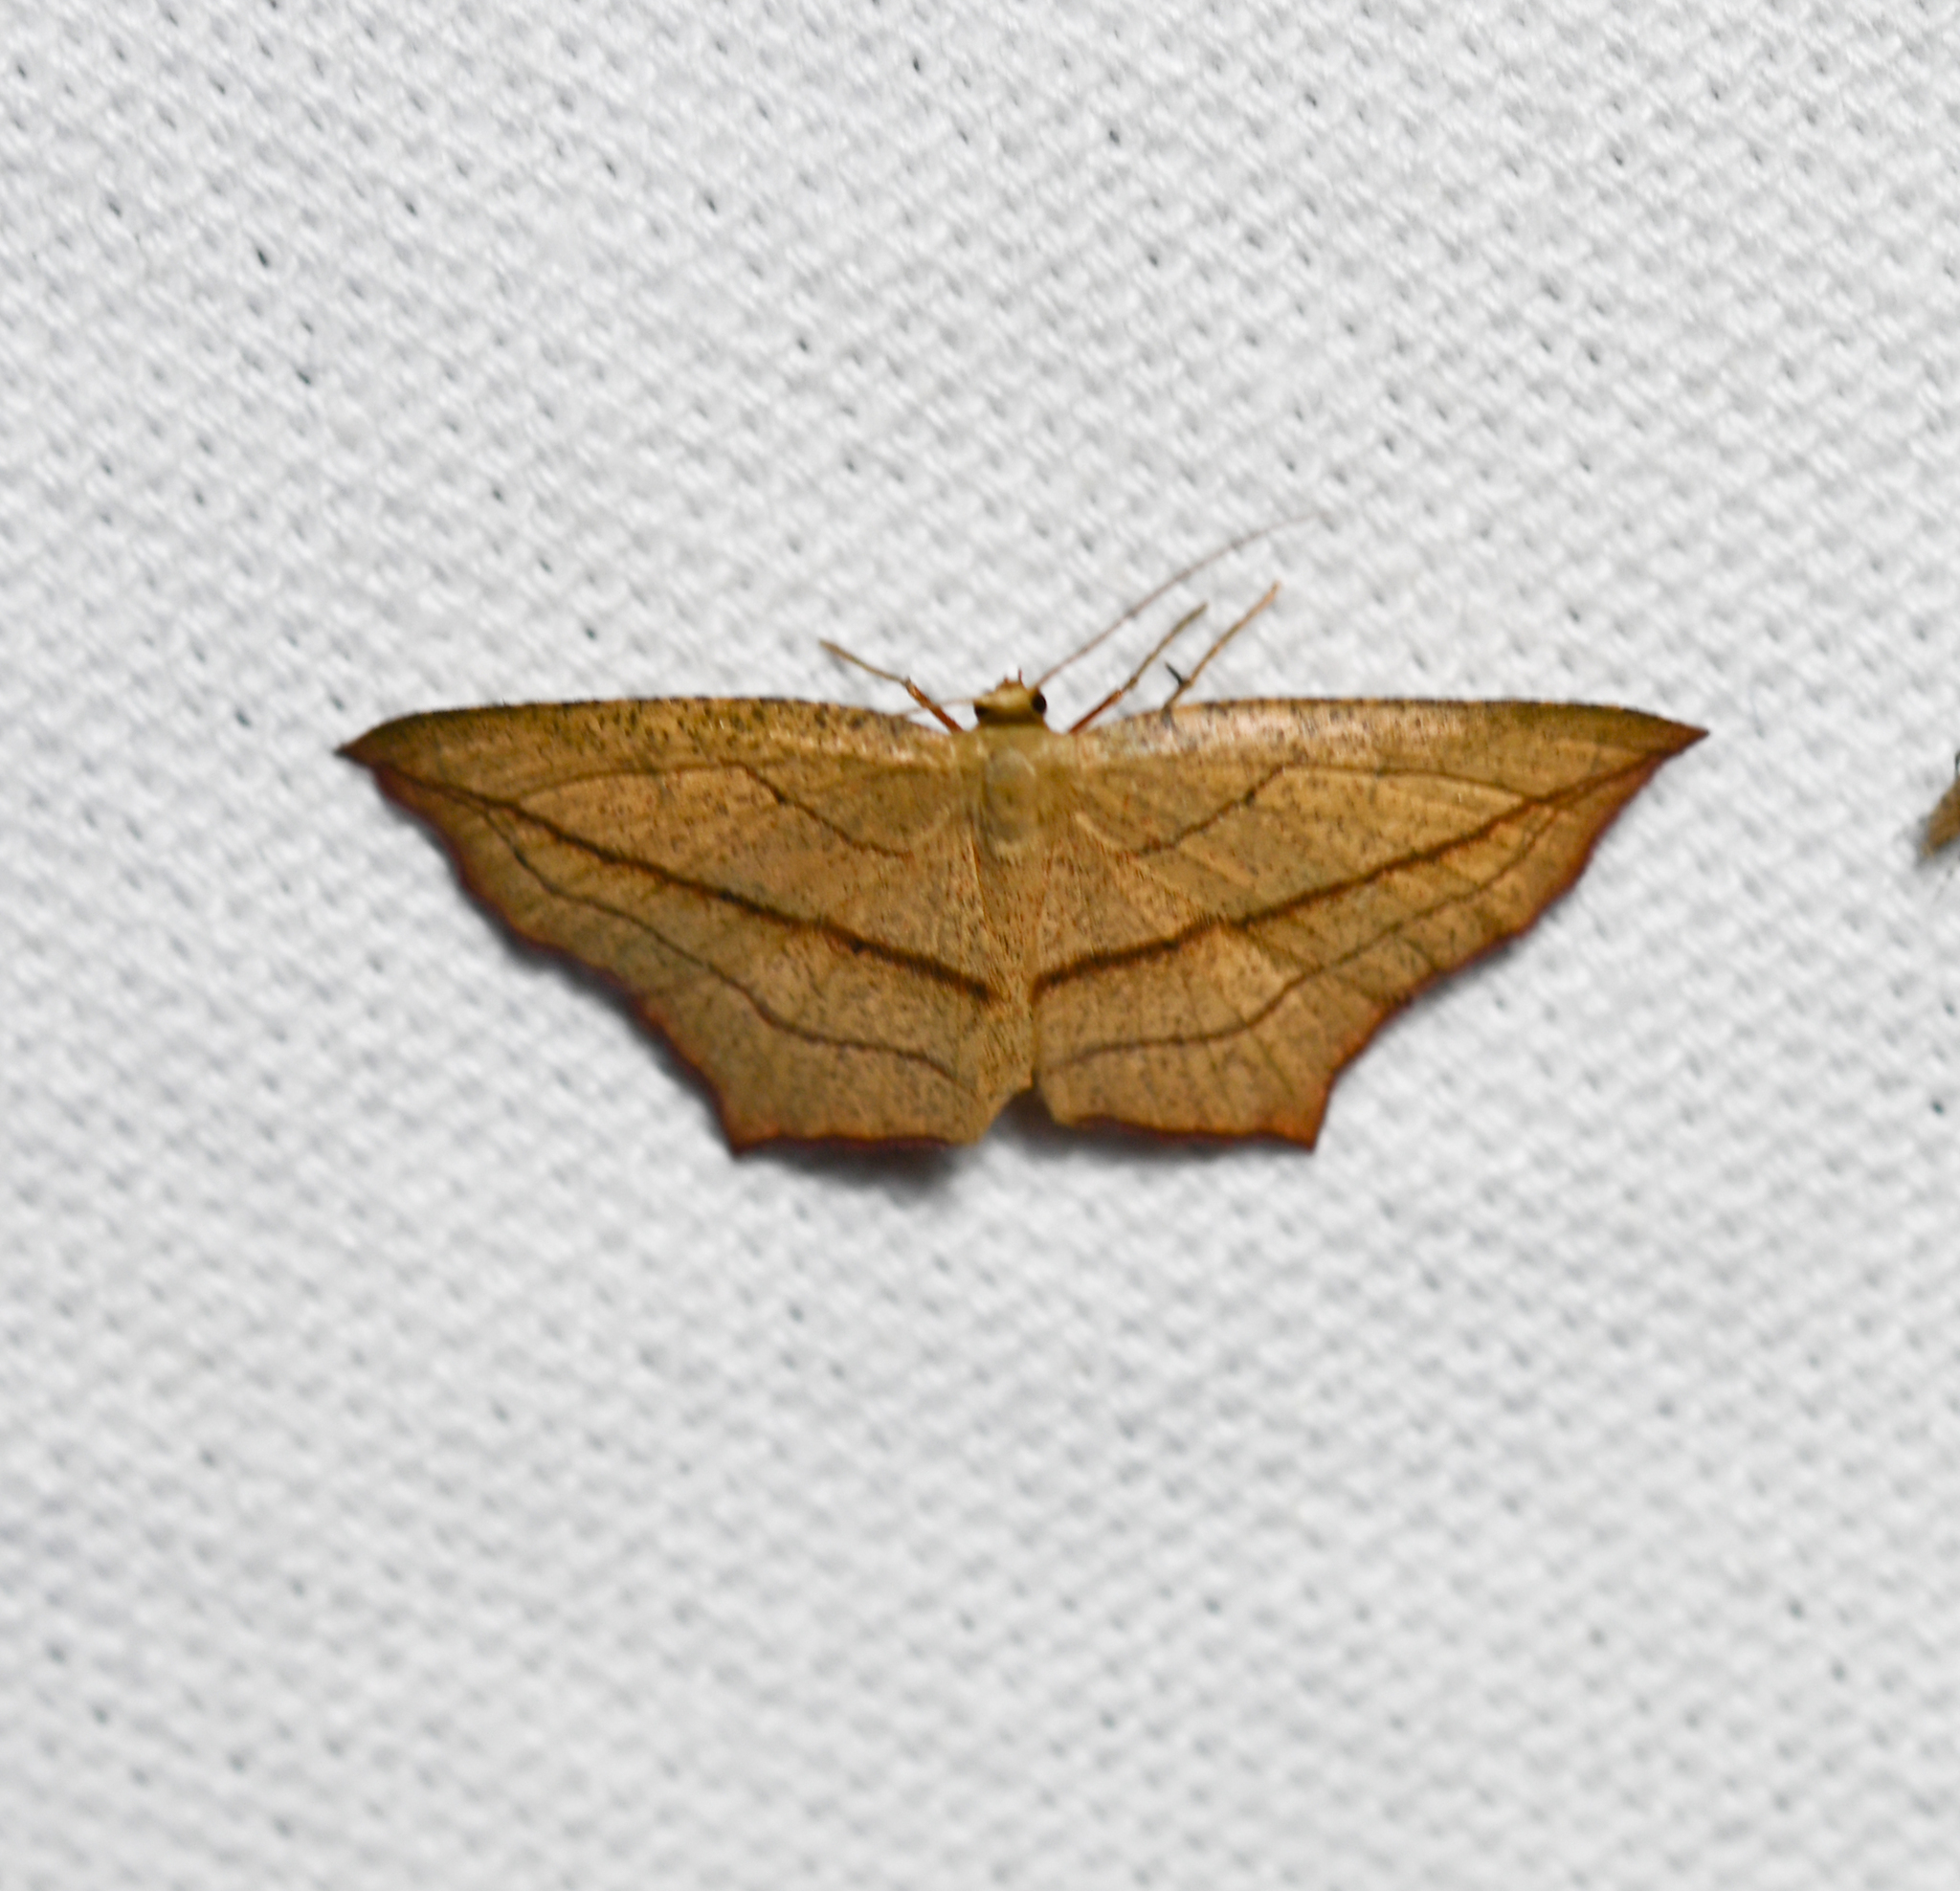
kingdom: Animalia
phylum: Arthropoda
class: Insecta
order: Lepidoptera
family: Geometridae
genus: Timandra
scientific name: Timandra amaturaria
